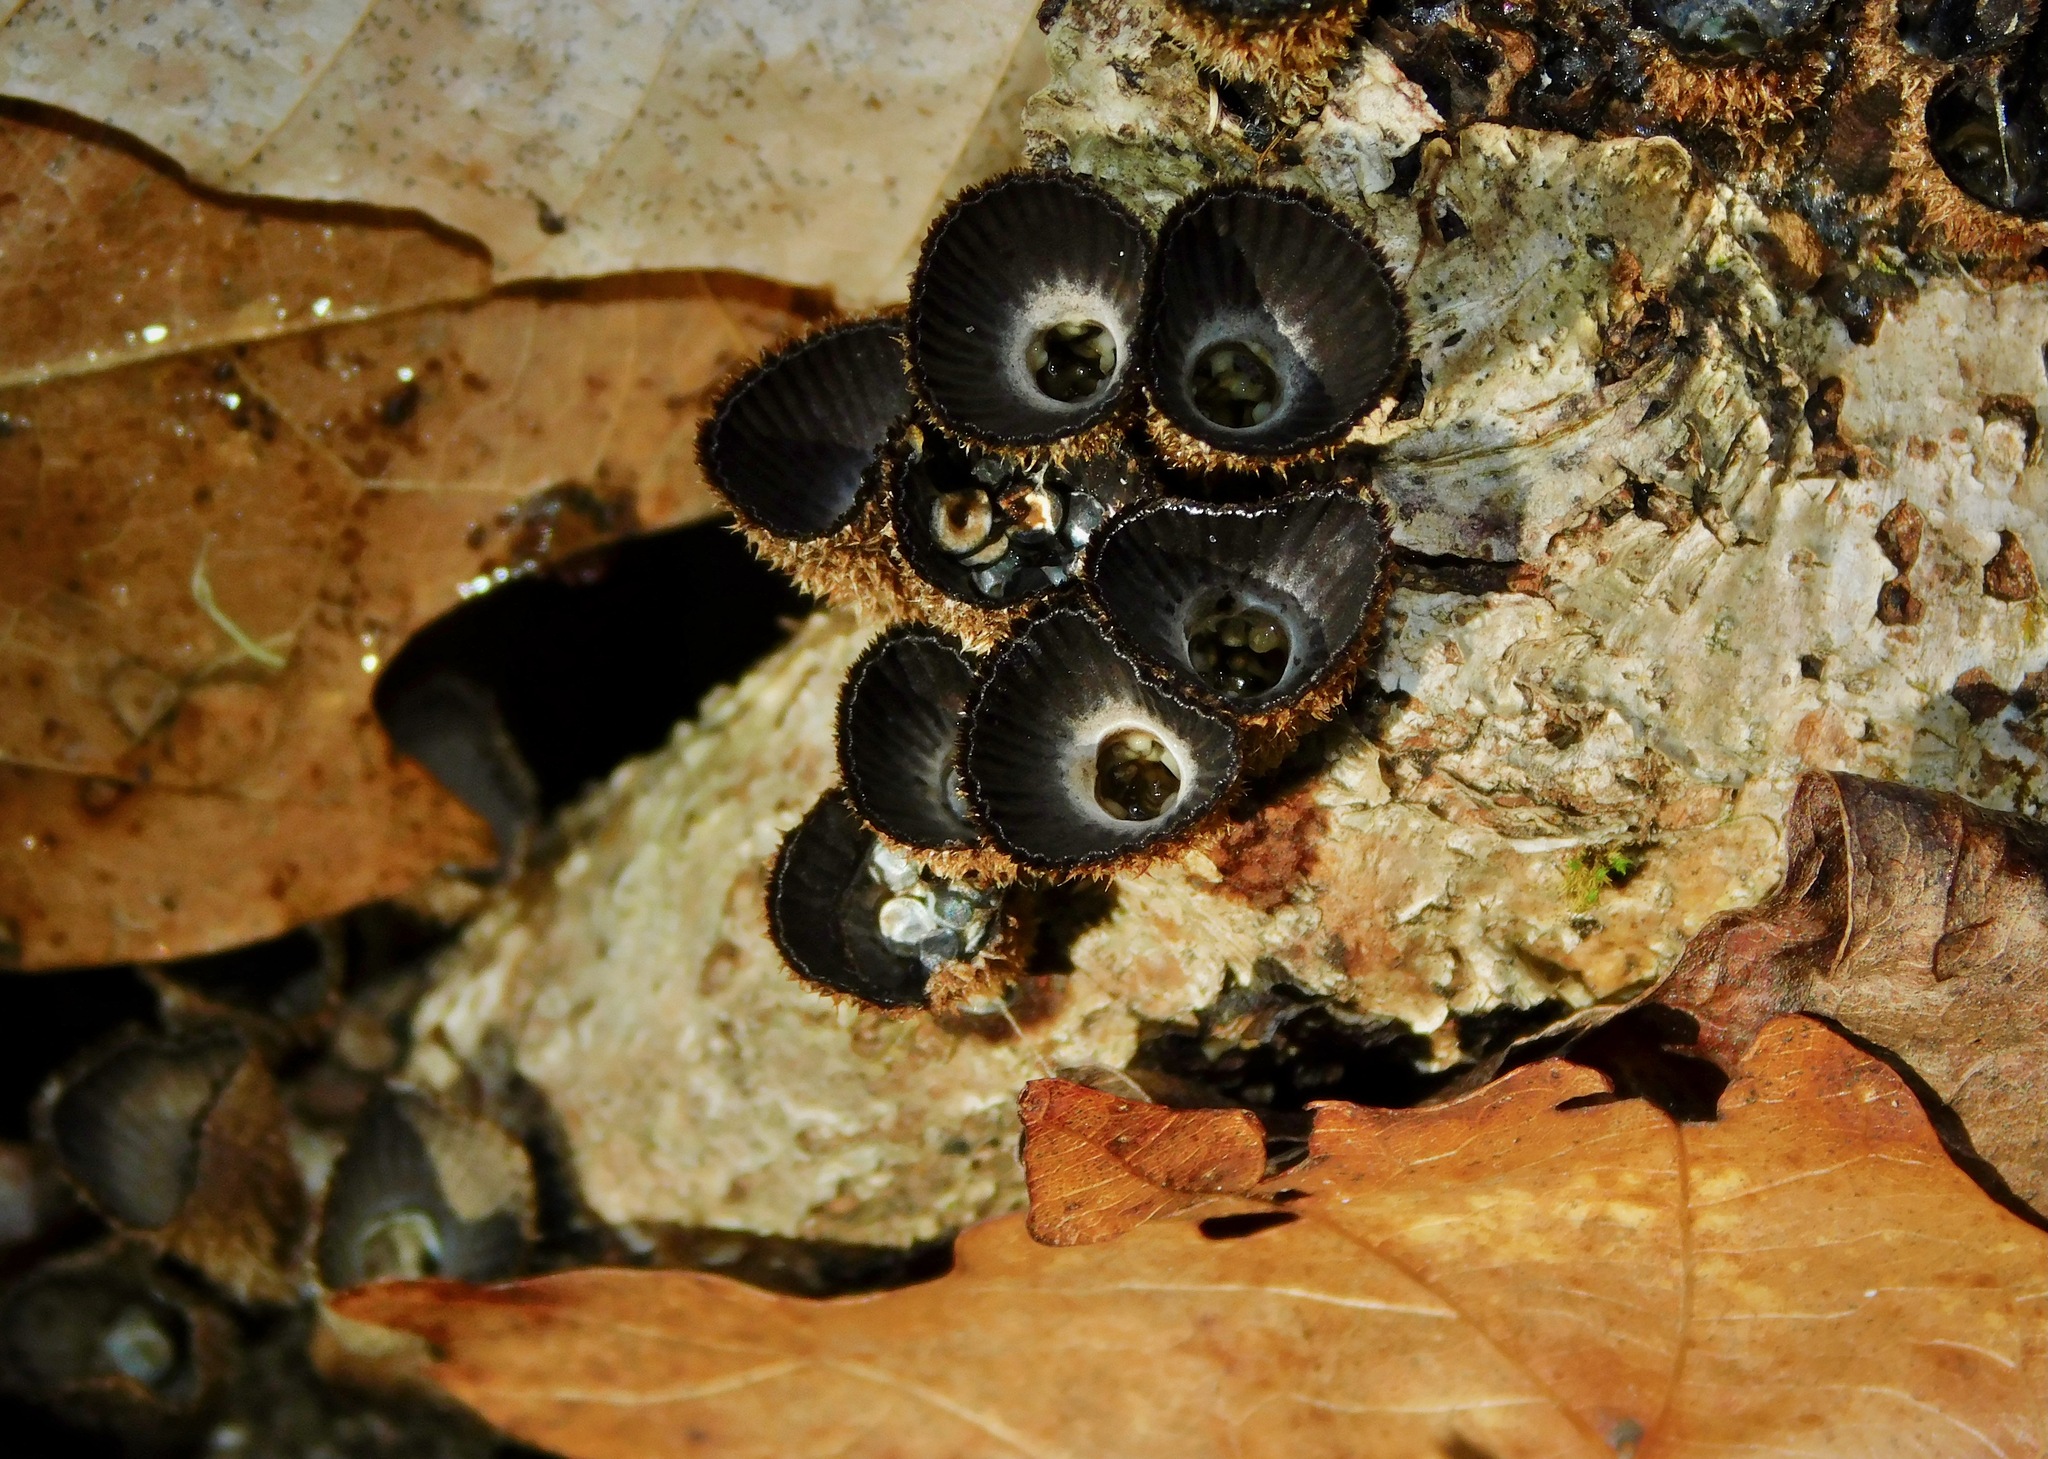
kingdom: Fungi
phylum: Basidiomycota
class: Agaricomycetes
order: Agaricales
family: Agaricaceae
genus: Cyathus
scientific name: Cyathus striatus
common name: Fluted bird's nest
